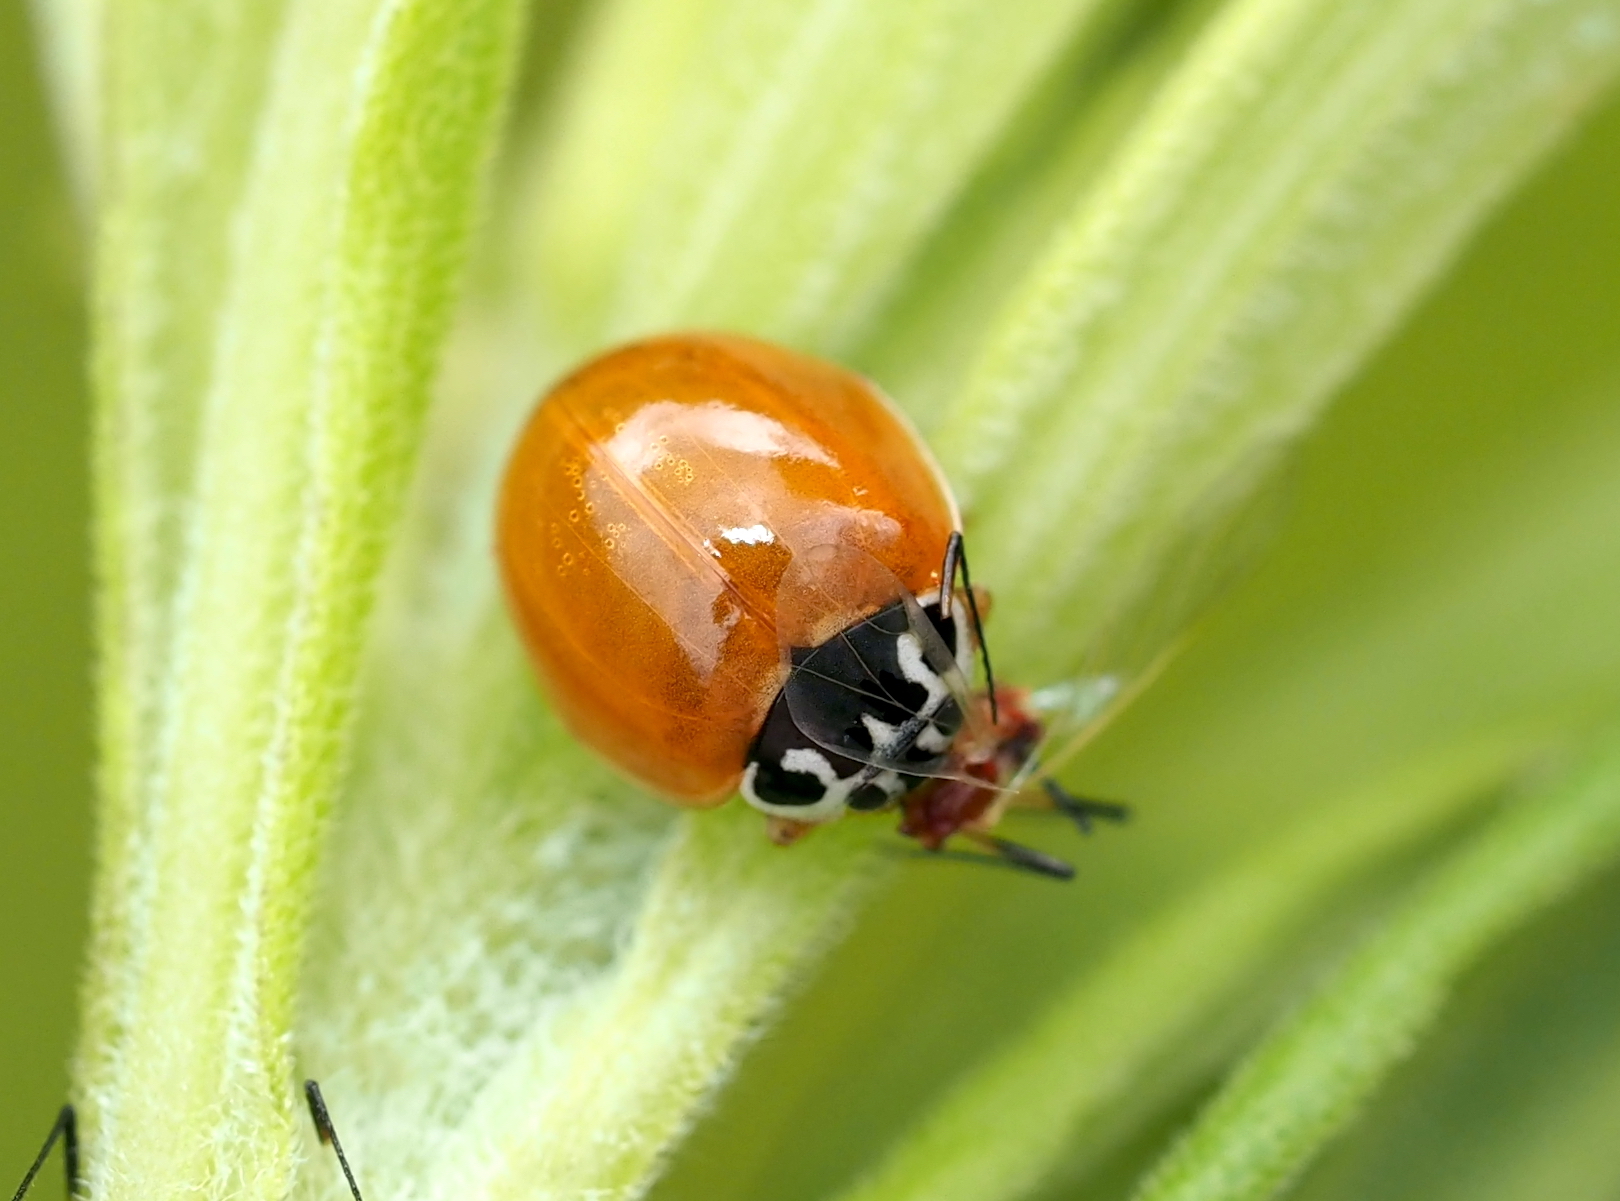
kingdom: Animalia
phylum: Arthropoda
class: Insecta
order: Coleoptera
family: Coccinellidae
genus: Cycloneda
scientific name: Cycloneda munda
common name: Polished lady beetle
